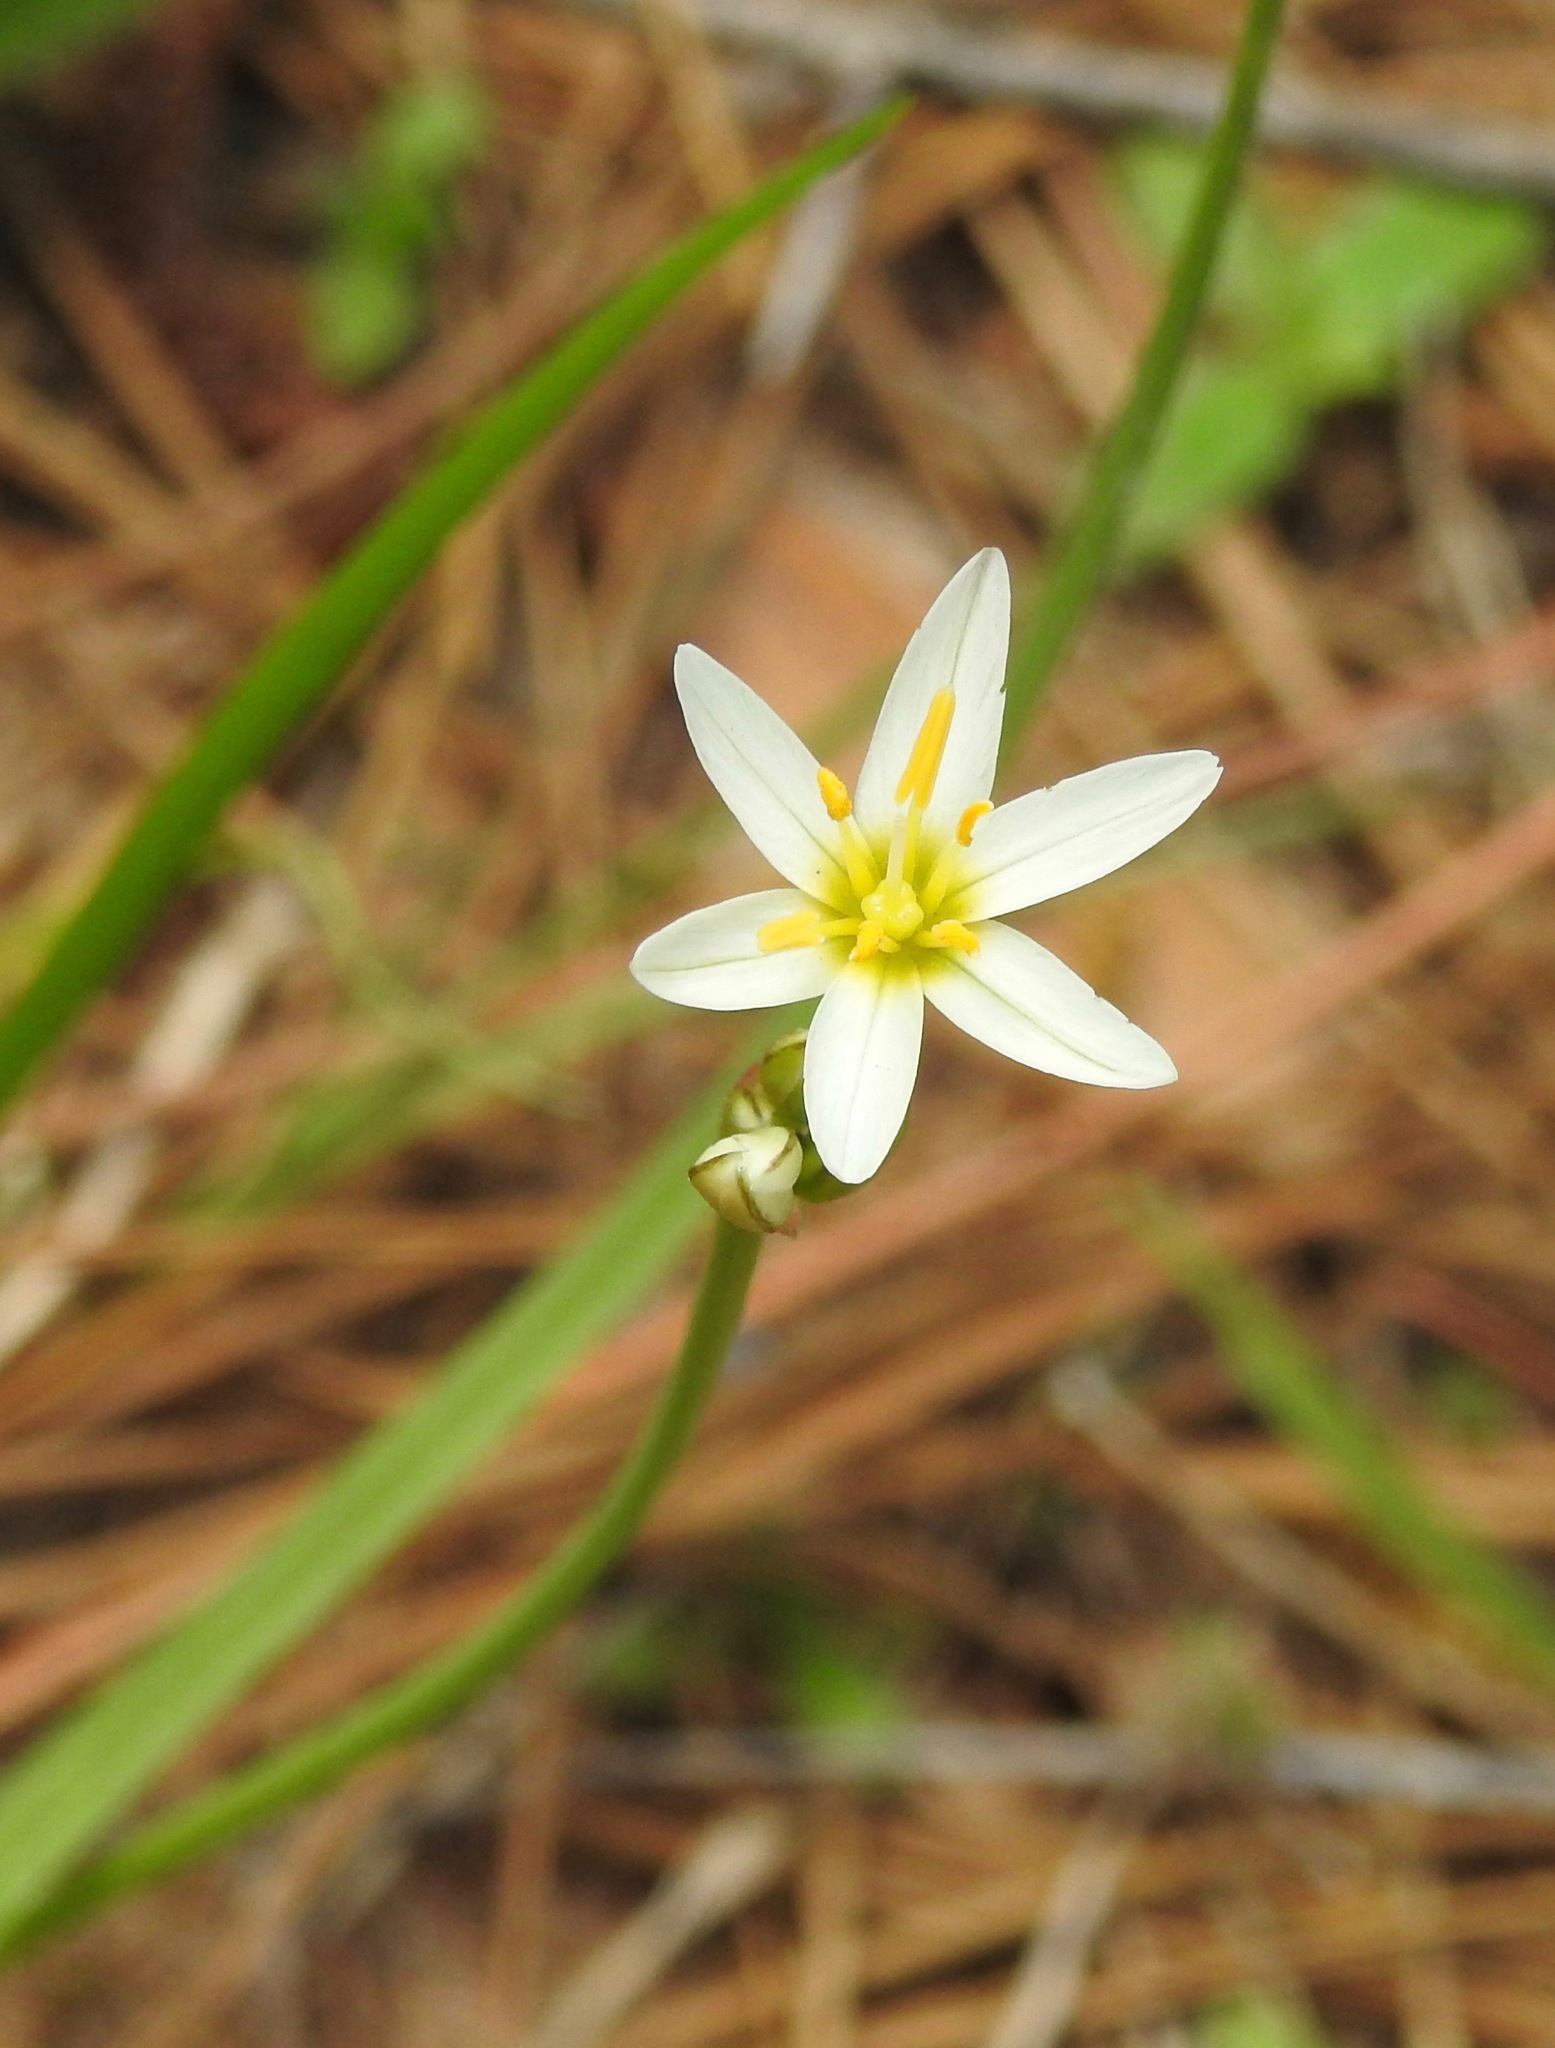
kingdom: Plantae
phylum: Tracheophyta
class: Liliopsida
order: Asparagales
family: Amaryllidaceae
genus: Nothoscordum
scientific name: Nothoscordum bivalve
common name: Crow-poison
